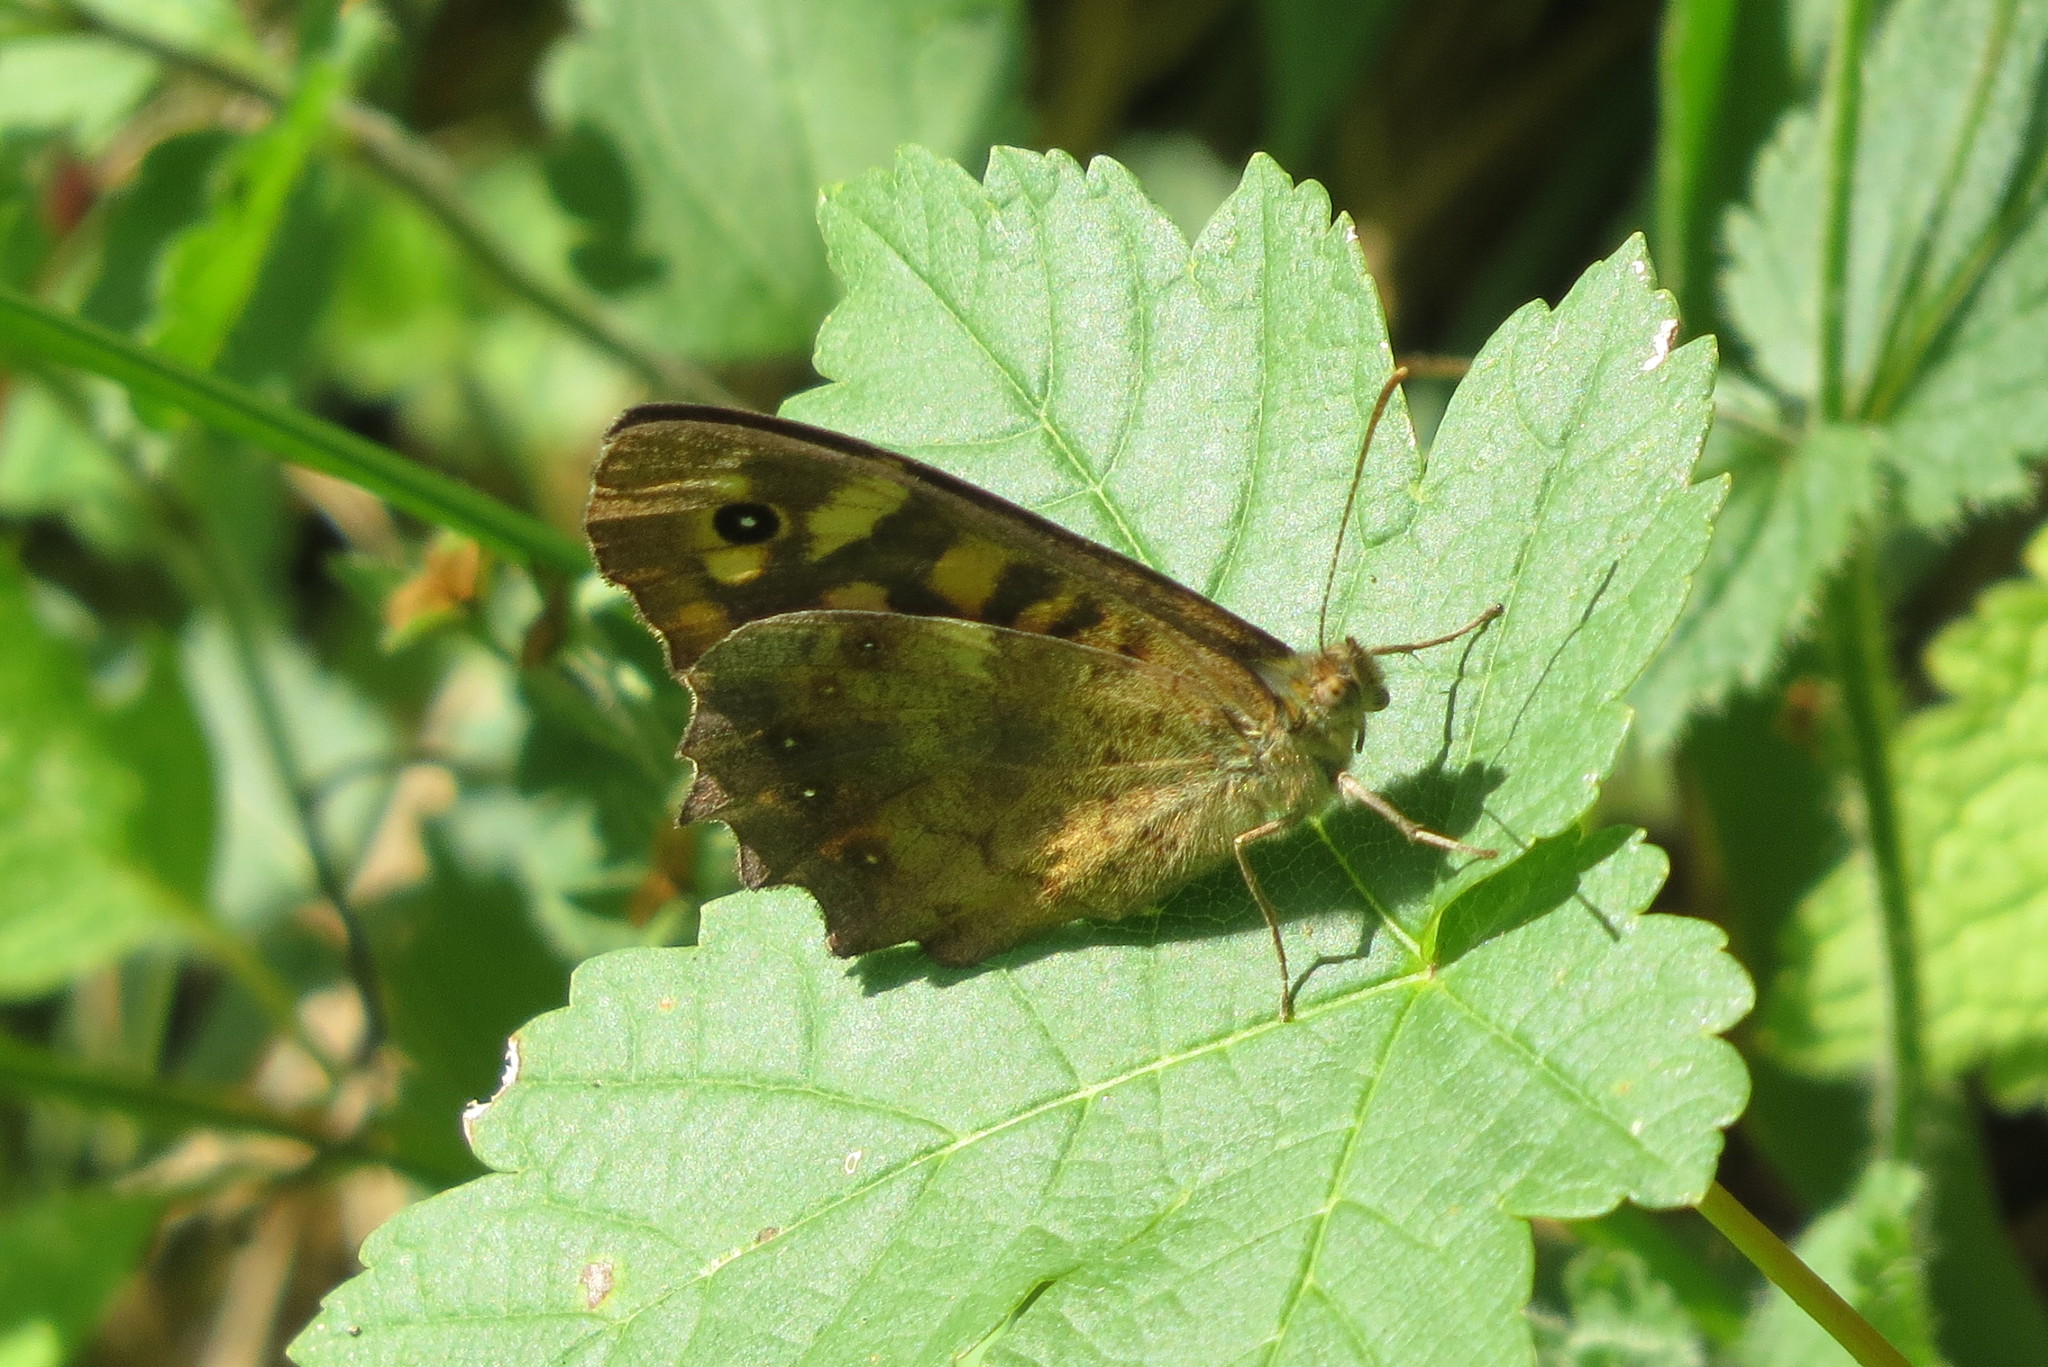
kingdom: Animalia
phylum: Arthropoda
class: Insecta
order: Lepidoptera
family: Nymphalidae
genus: Pararge
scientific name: Pararge aegeria
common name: Speckled wood
